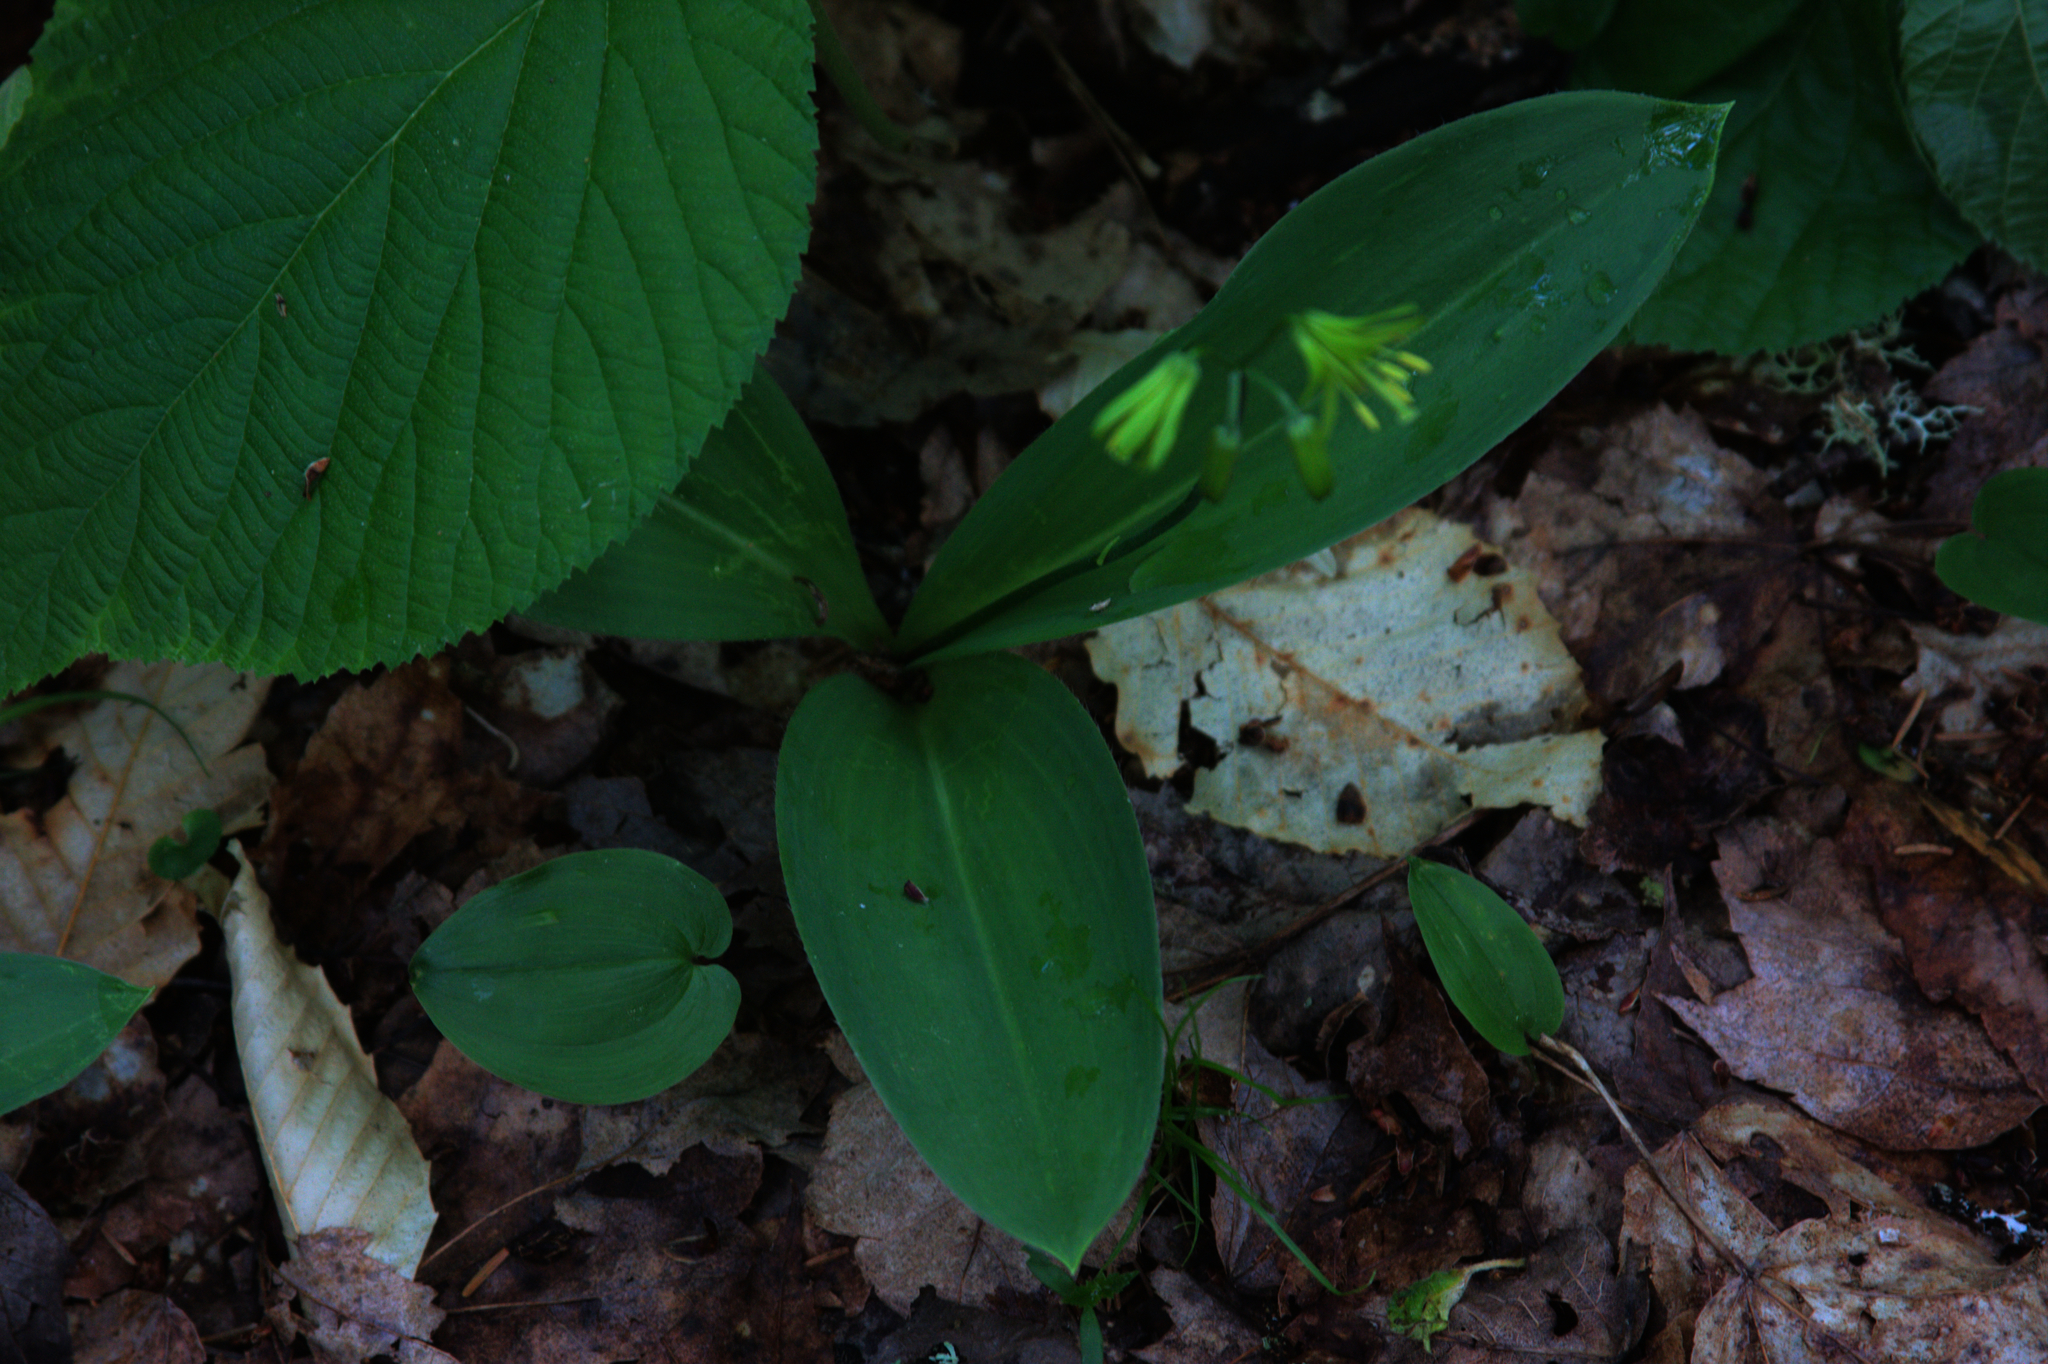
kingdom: Plantae
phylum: Tracheophyta
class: Liliopsida
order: Liliales
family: Liliaceae
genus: Clintonia
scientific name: Clintonia borealis
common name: Yellow clintonia
